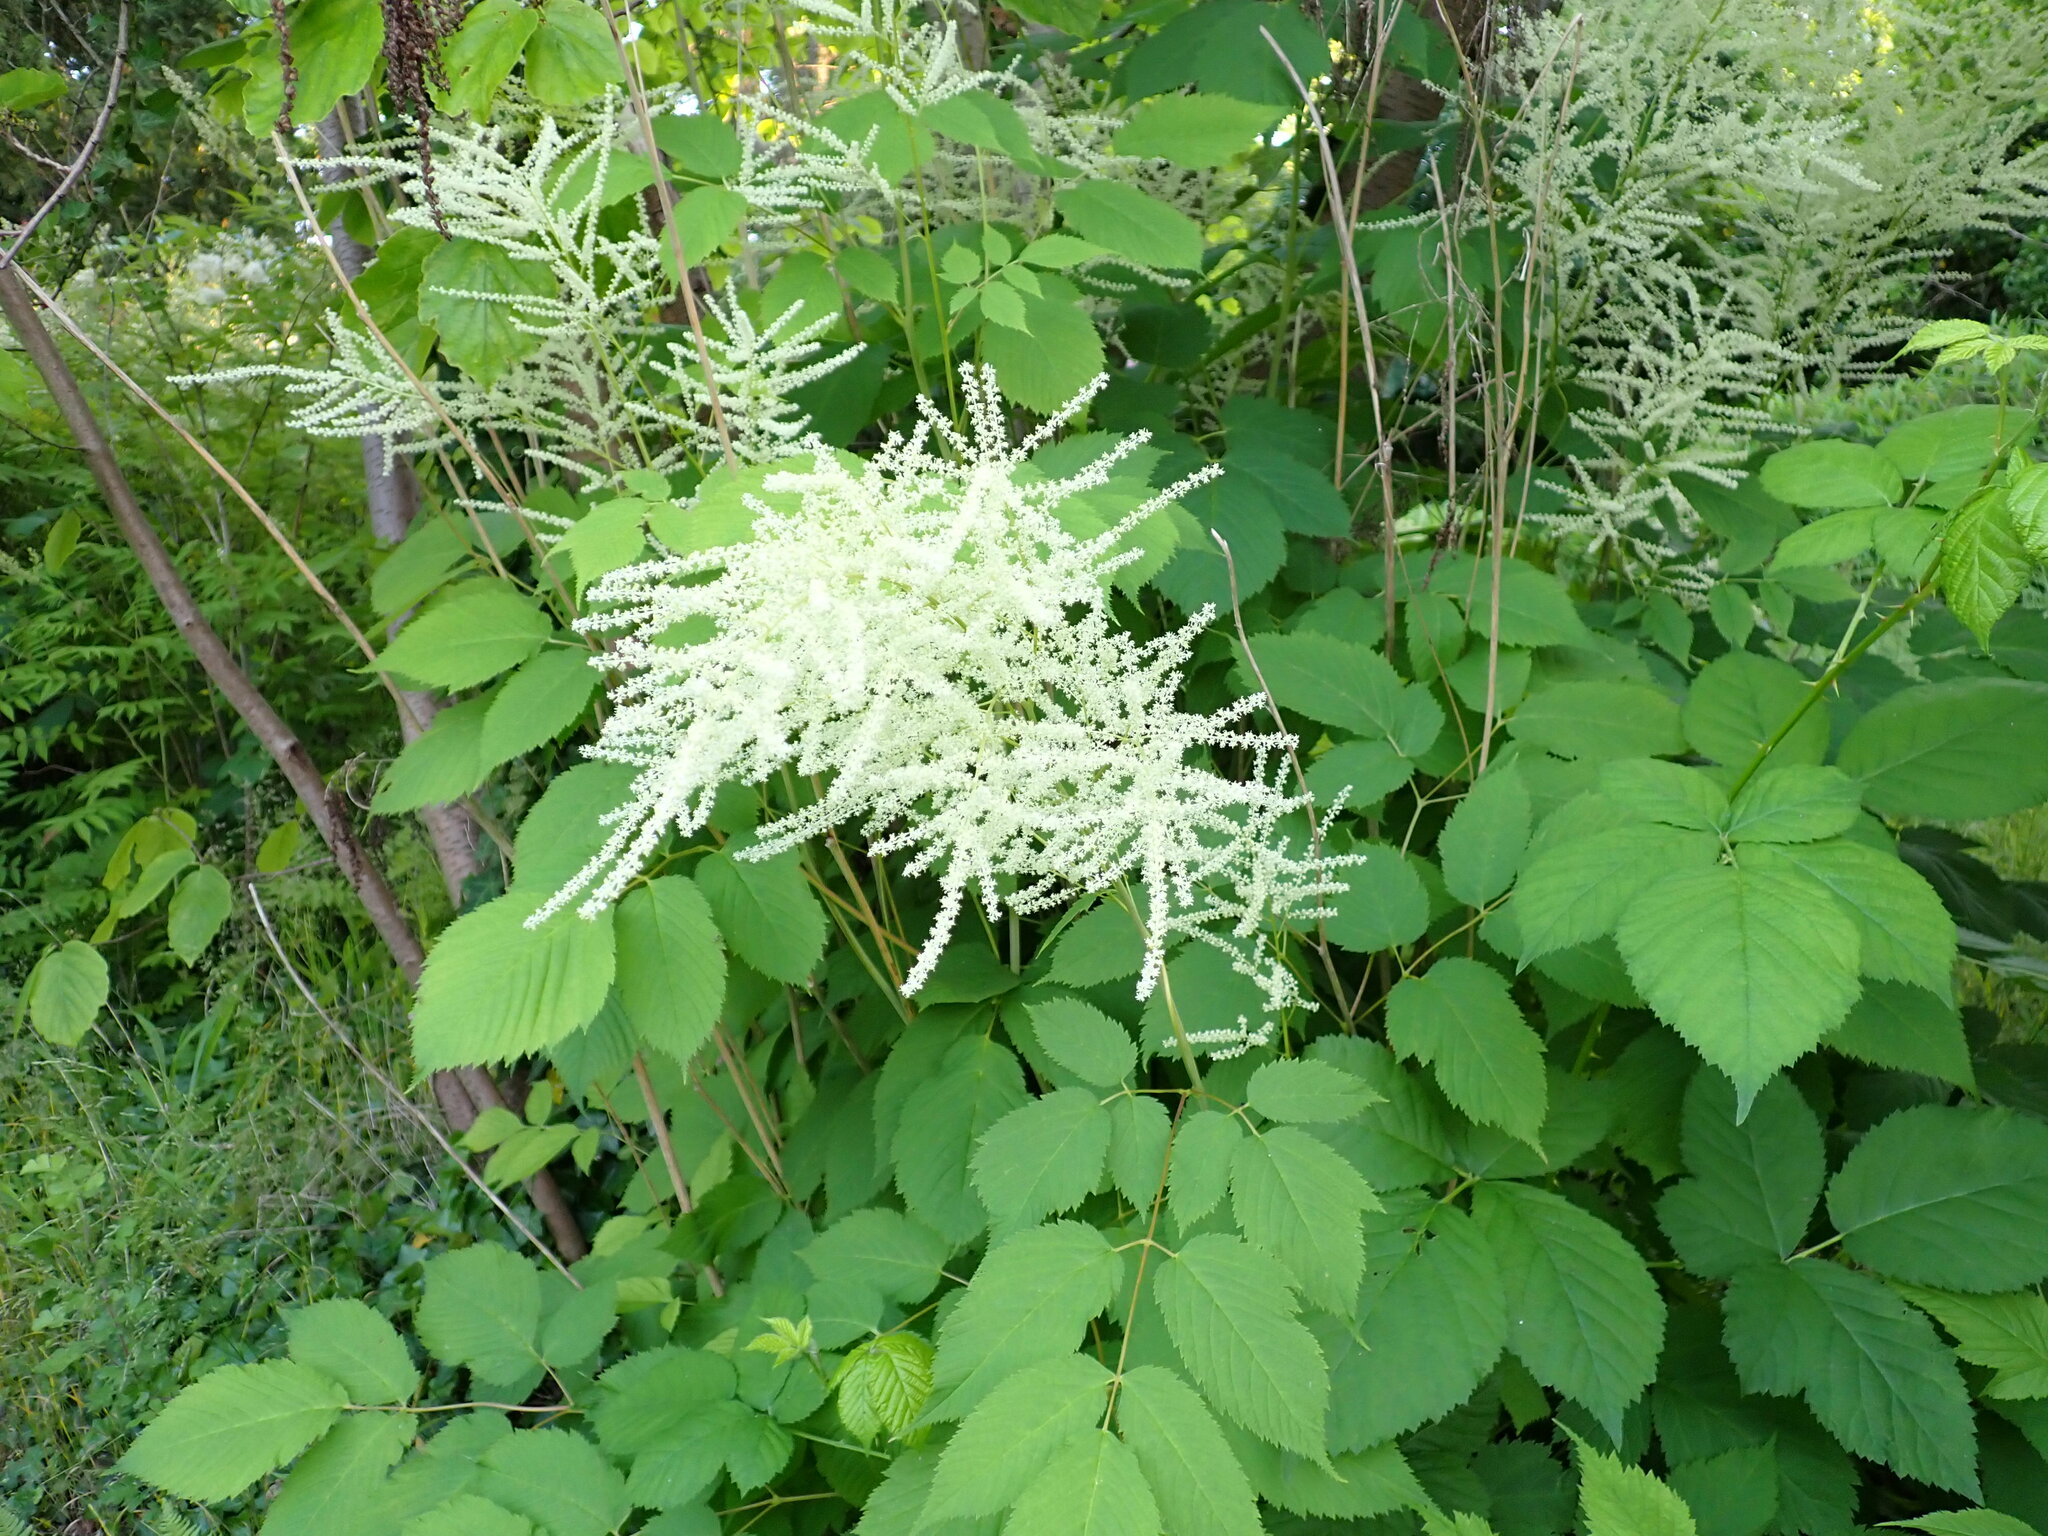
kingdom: Plantae
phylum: Tracheophyta
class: Magnoliopsida
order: Rosales
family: Rosaceae
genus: Aruncus
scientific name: Aruncus dioicus
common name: Buck's-beard
